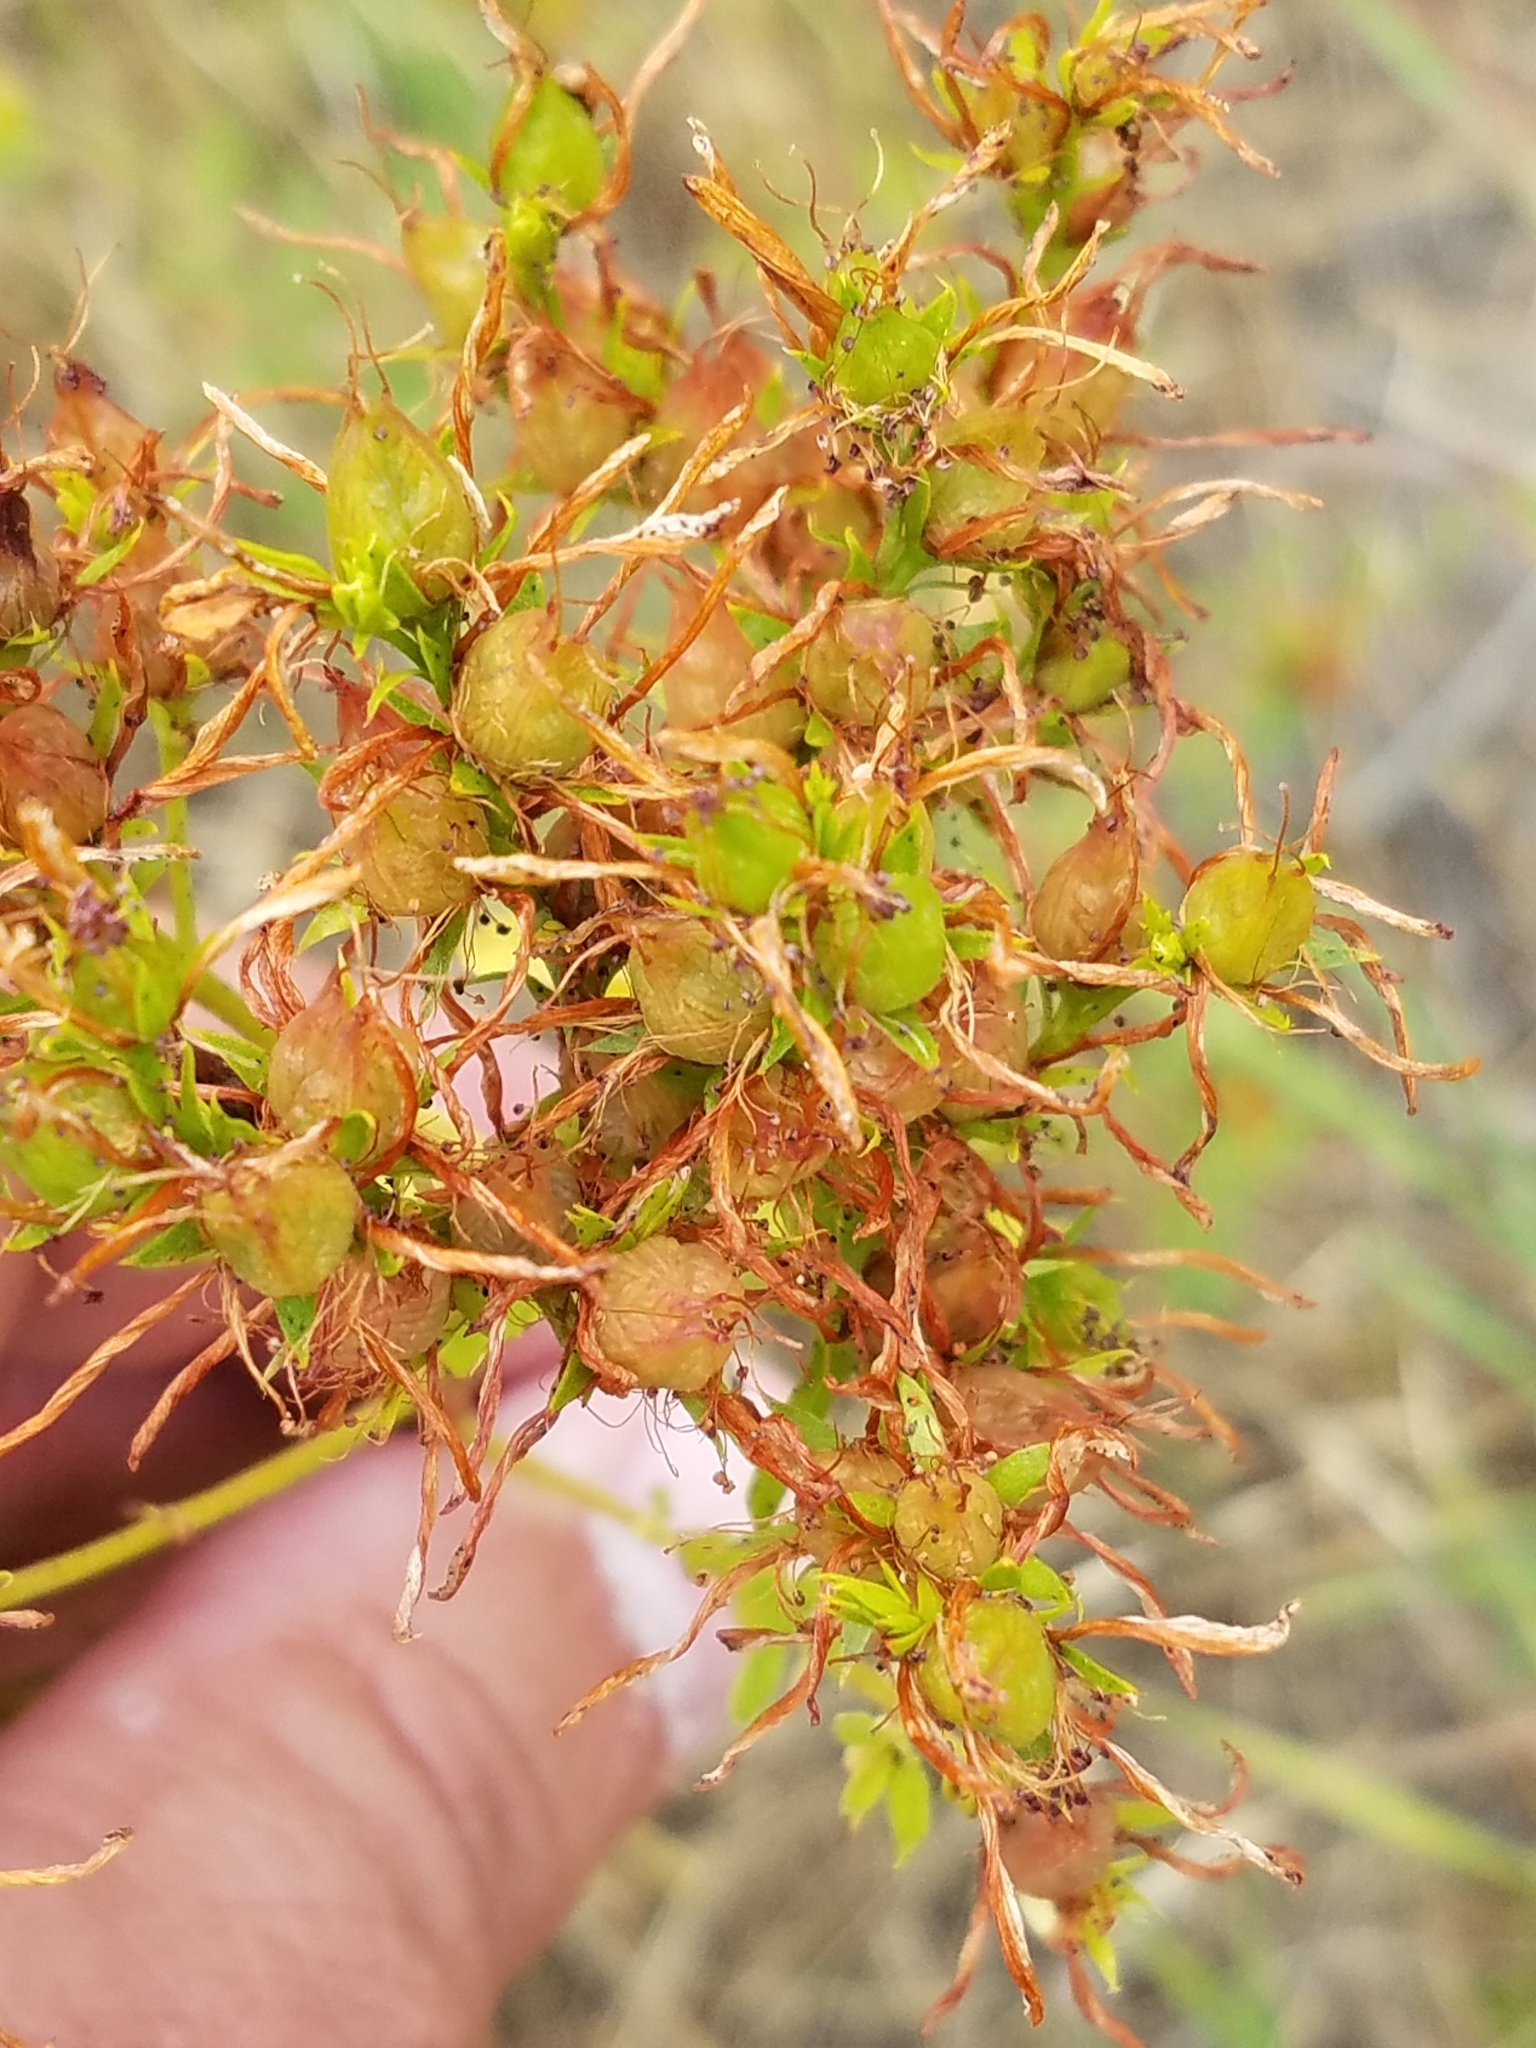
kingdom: Plantae
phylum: Tracheophyta
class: Magnoliopsida
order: Malpighiales
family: Hypericaceae
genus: Hypericum
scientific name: Hypericum perforatum
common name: Common st. johnswort
